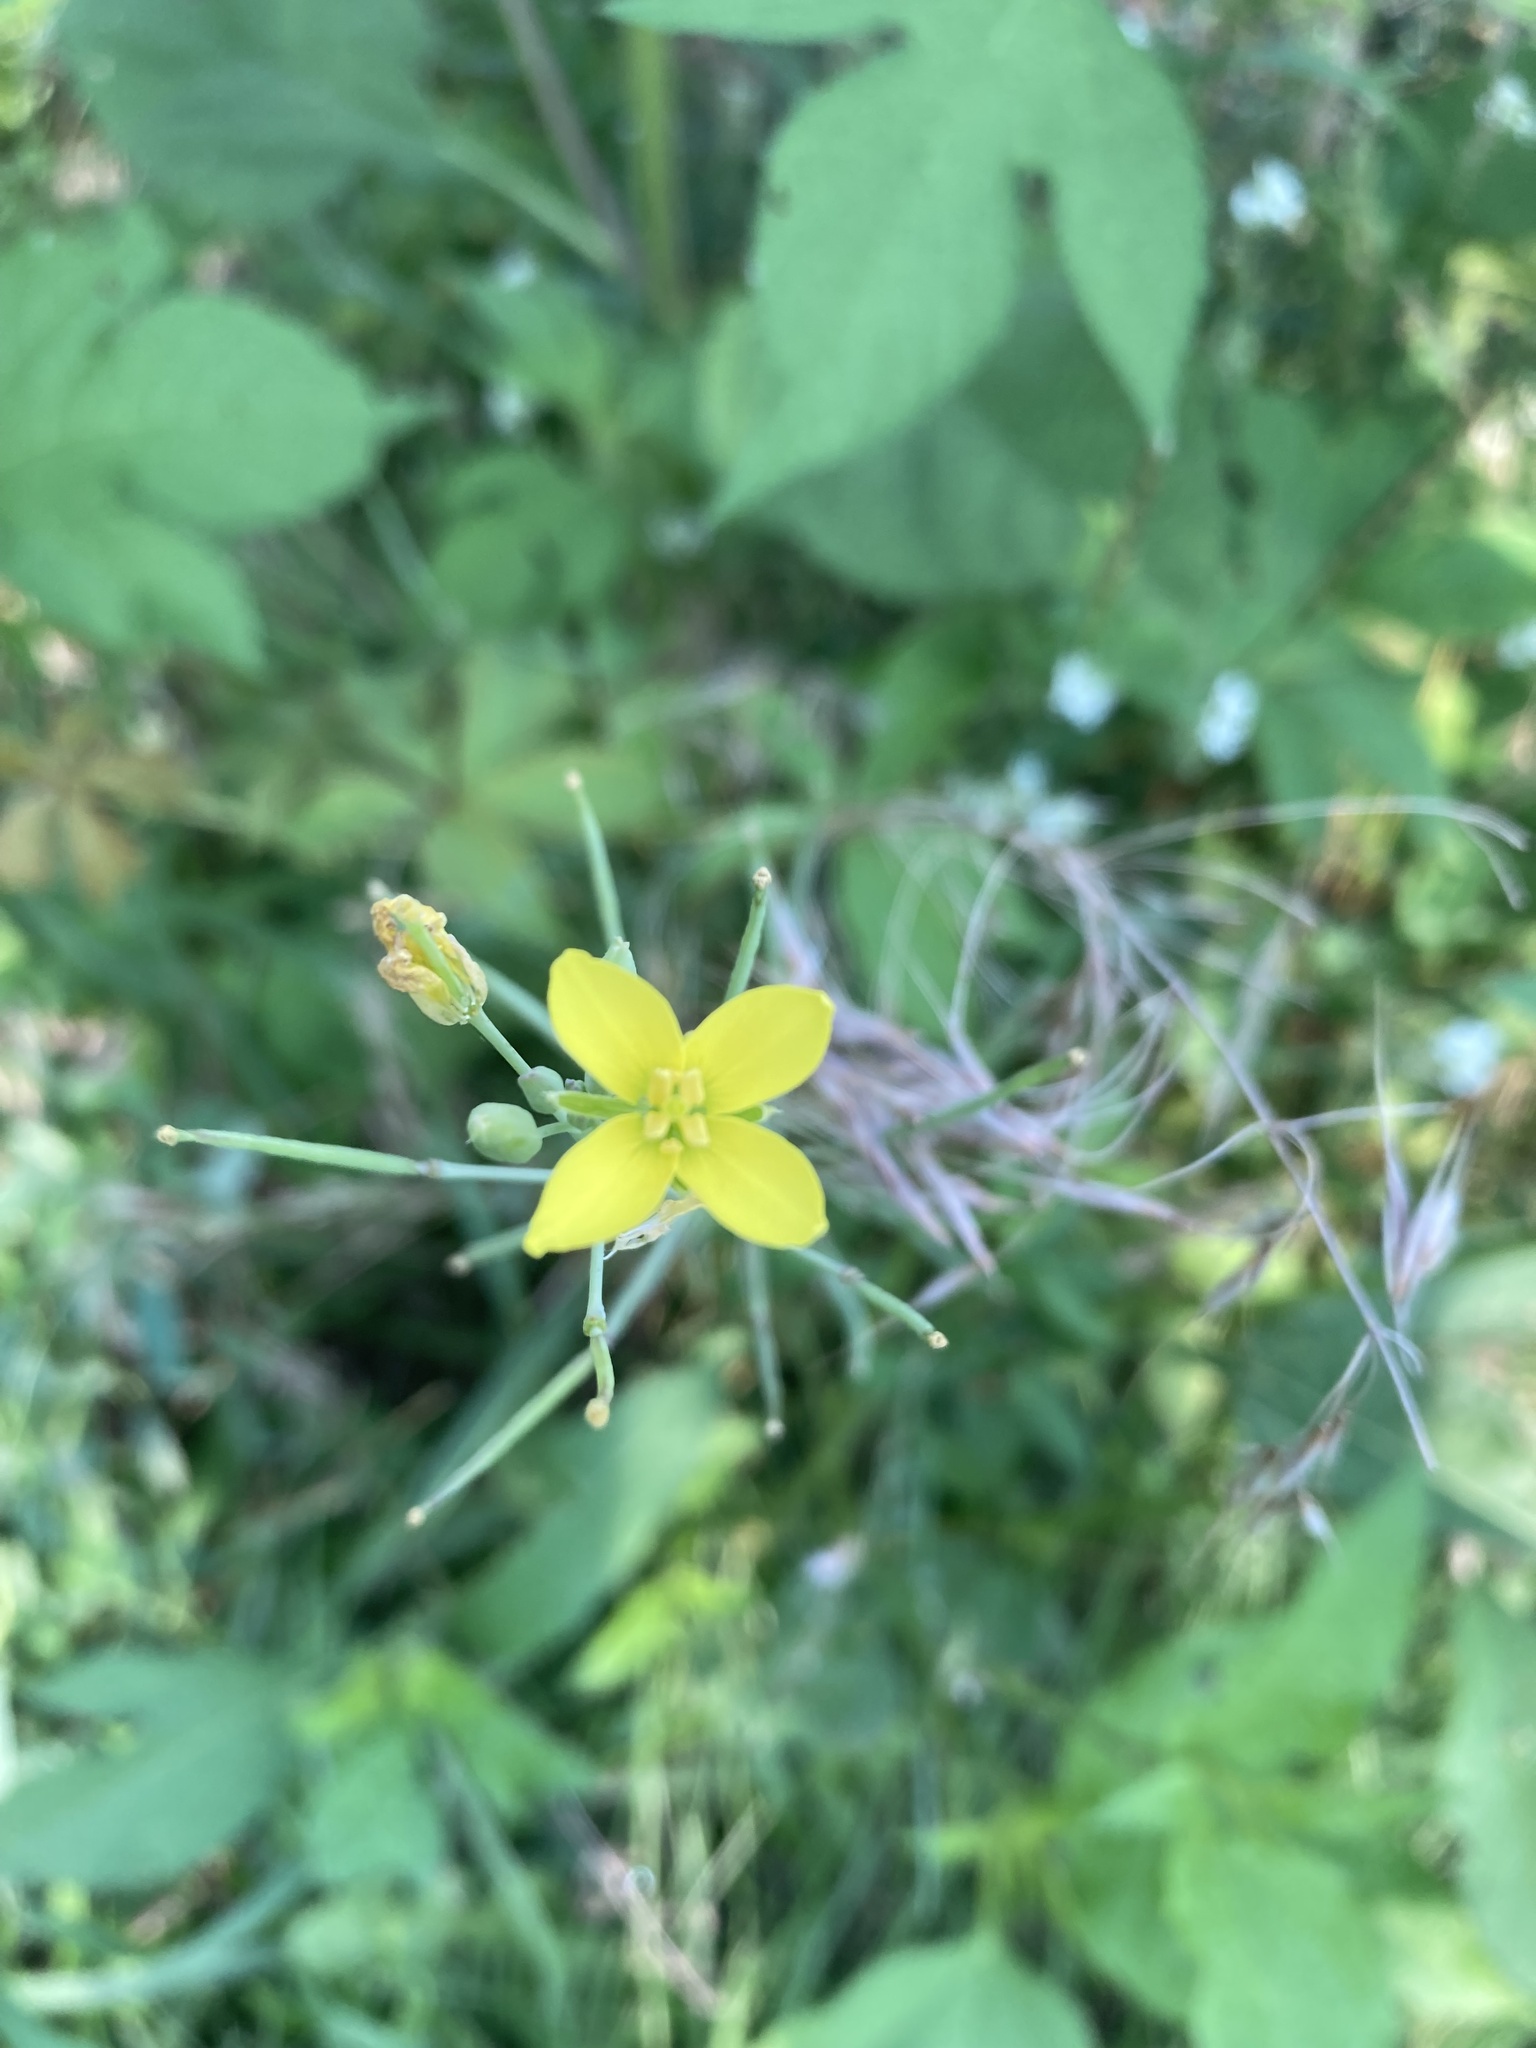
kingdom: Plantae
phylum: Tracheophyta
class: Magnoliopsida
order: Ranunculales
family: Papaveraceae
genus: Chelidonium
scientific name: Chelidonium majus
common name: Greater celandine
